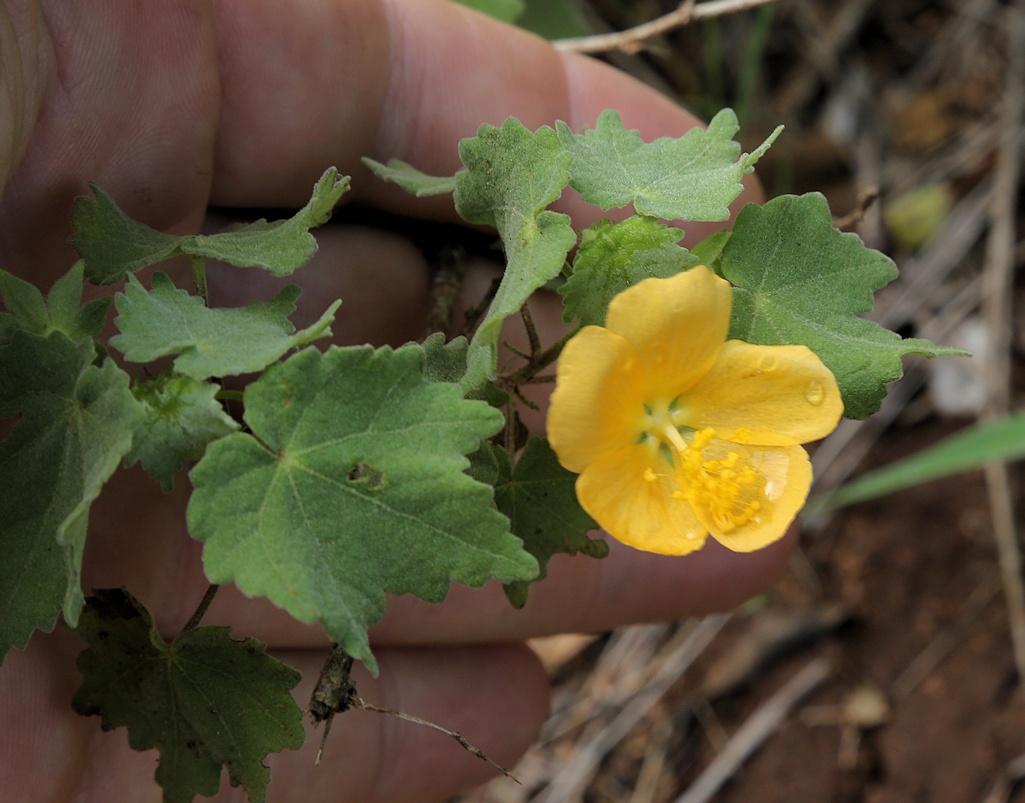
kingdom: Plantae
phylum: Tracheophyta
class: Magnoliopsida
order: Malvales
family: Malvaceae
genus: Pavonia
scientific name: Pavonia burchellii
